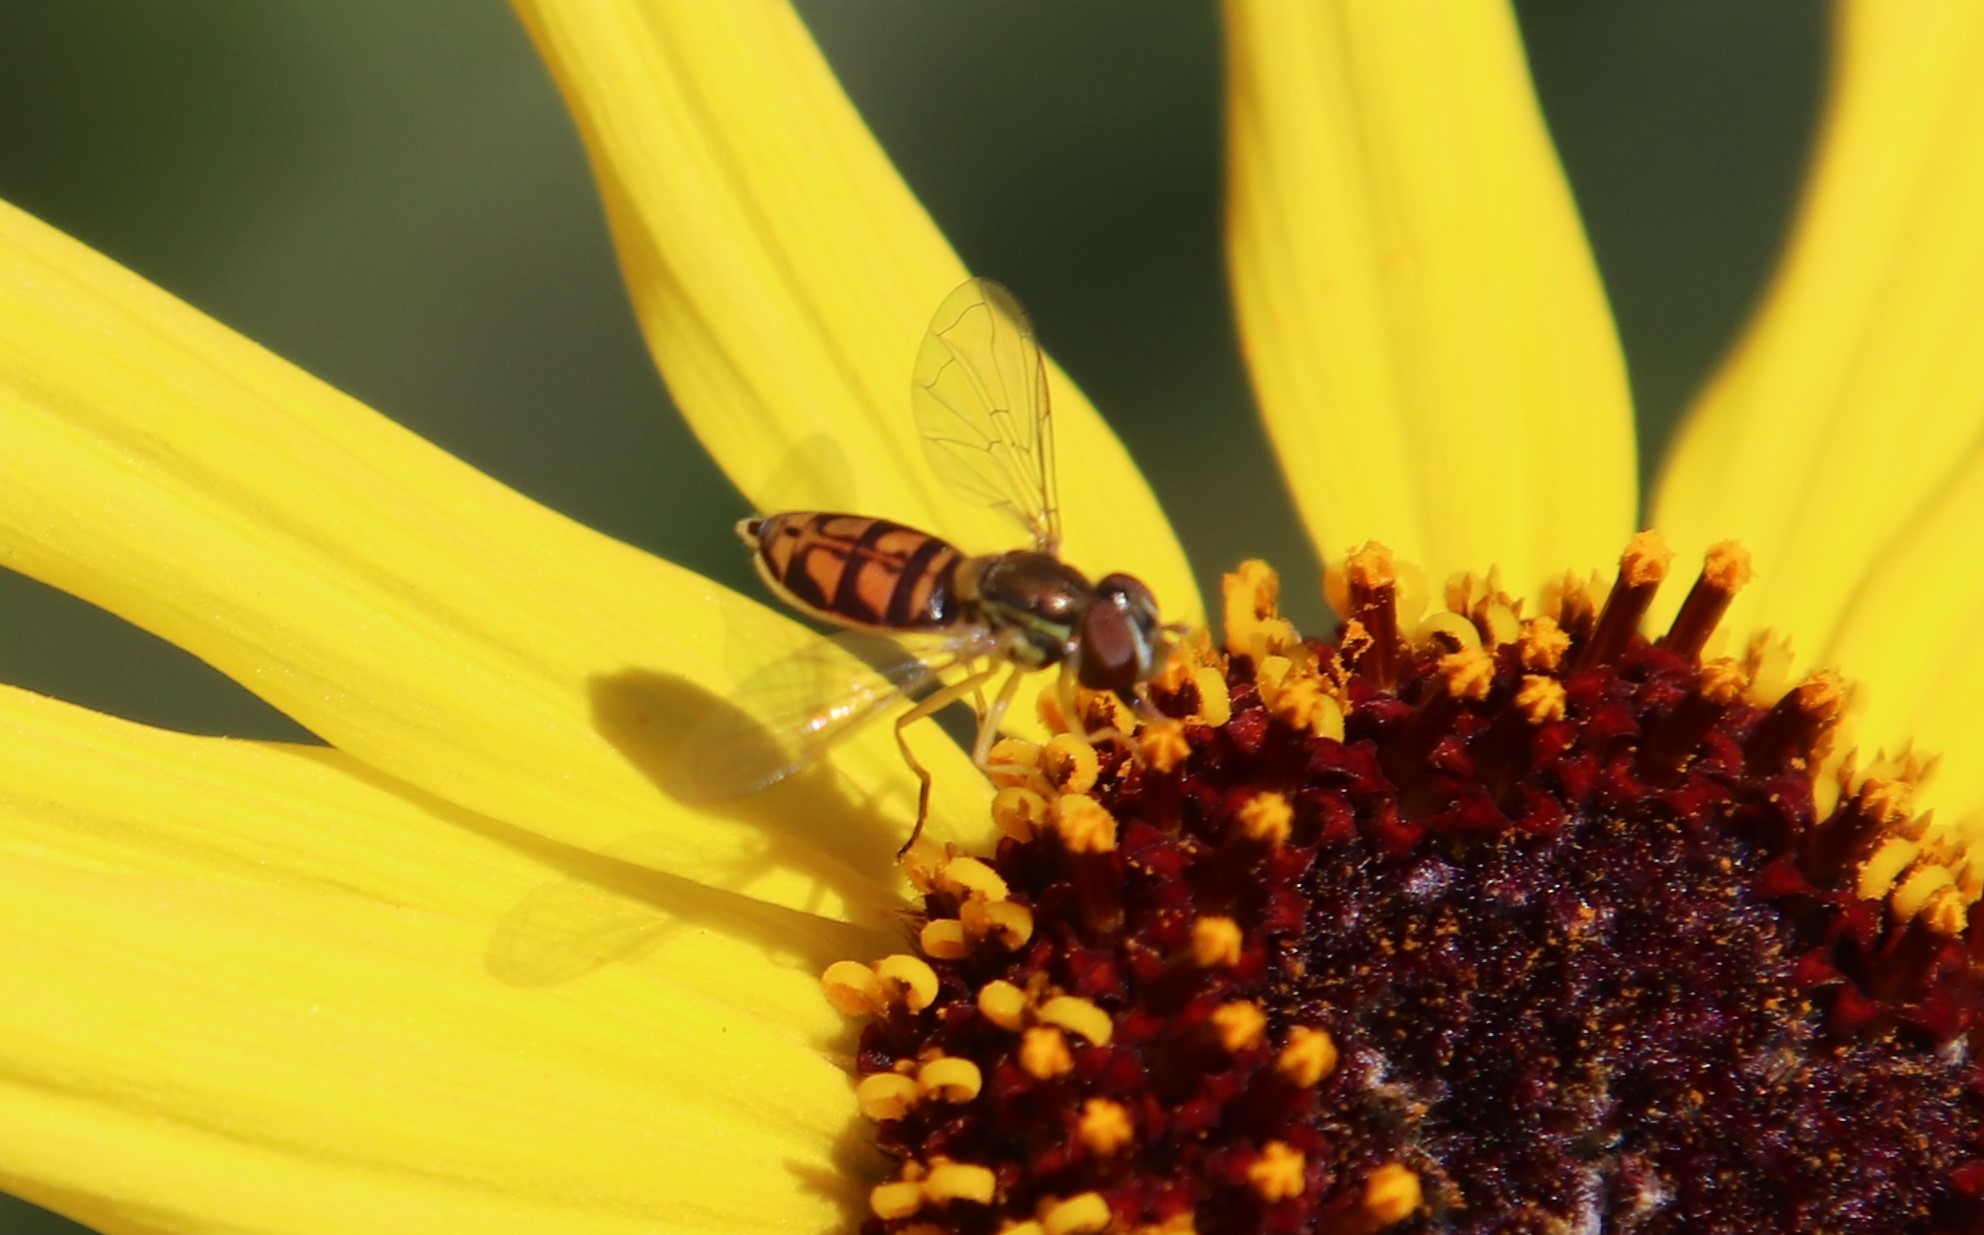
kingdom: Animalia
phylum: Arthropoda
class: Insecta
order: Diptera
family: Syrphidae
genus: Toxomerus
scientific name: Toxomerus marginatus
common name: Syrphid fly
